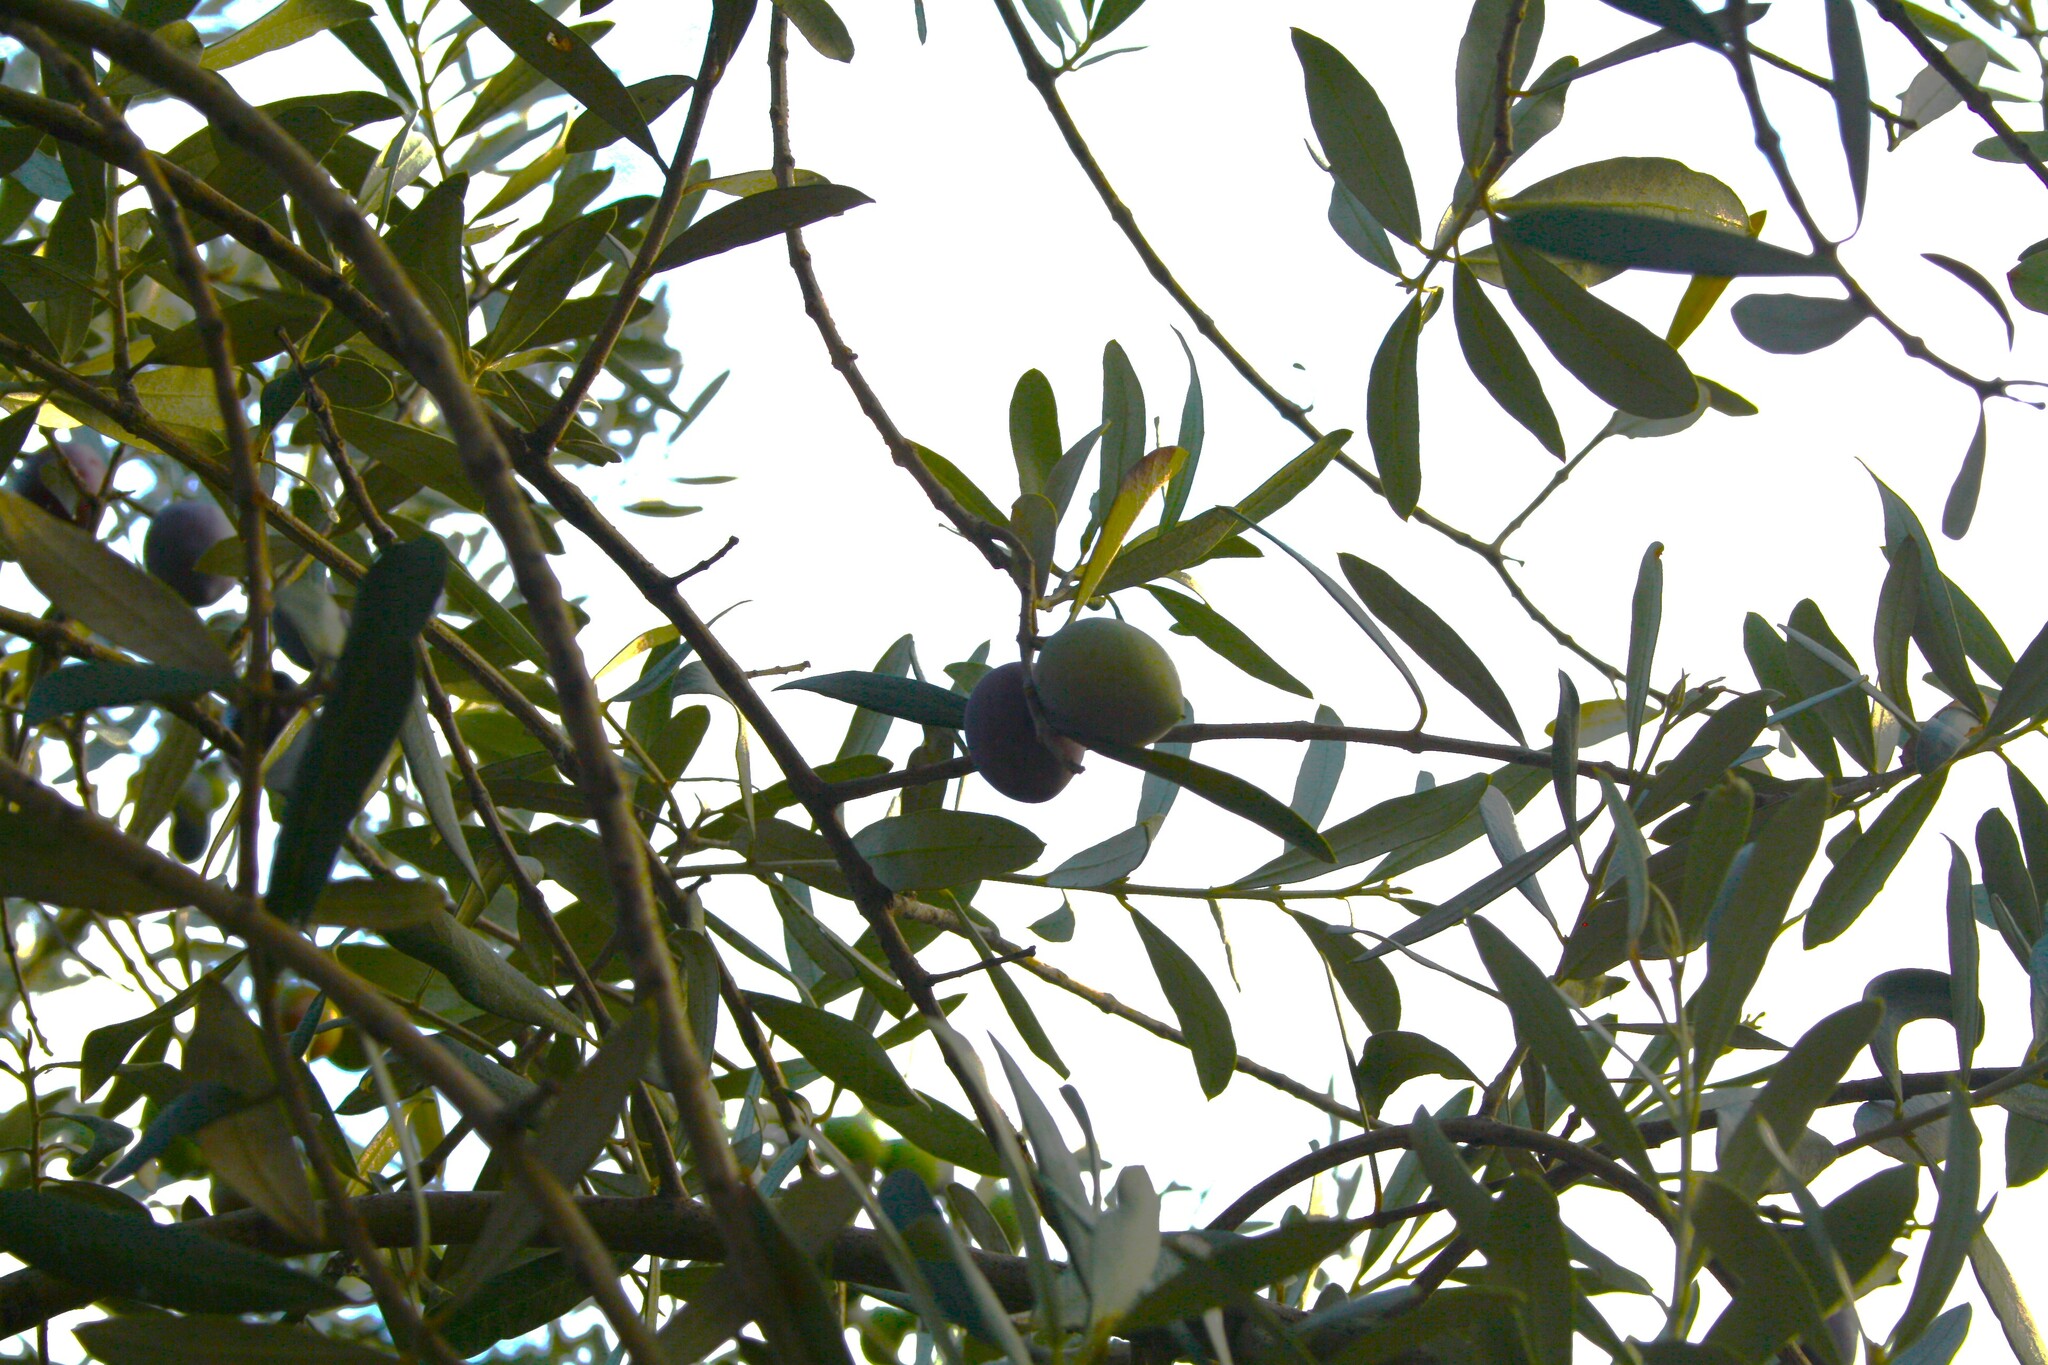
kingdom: Plantae
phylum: Tracheophyta
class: Magnoliopsida
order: Lamiales
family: Oleaceae
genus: Olea
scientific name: Olea europaea
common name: Olive
